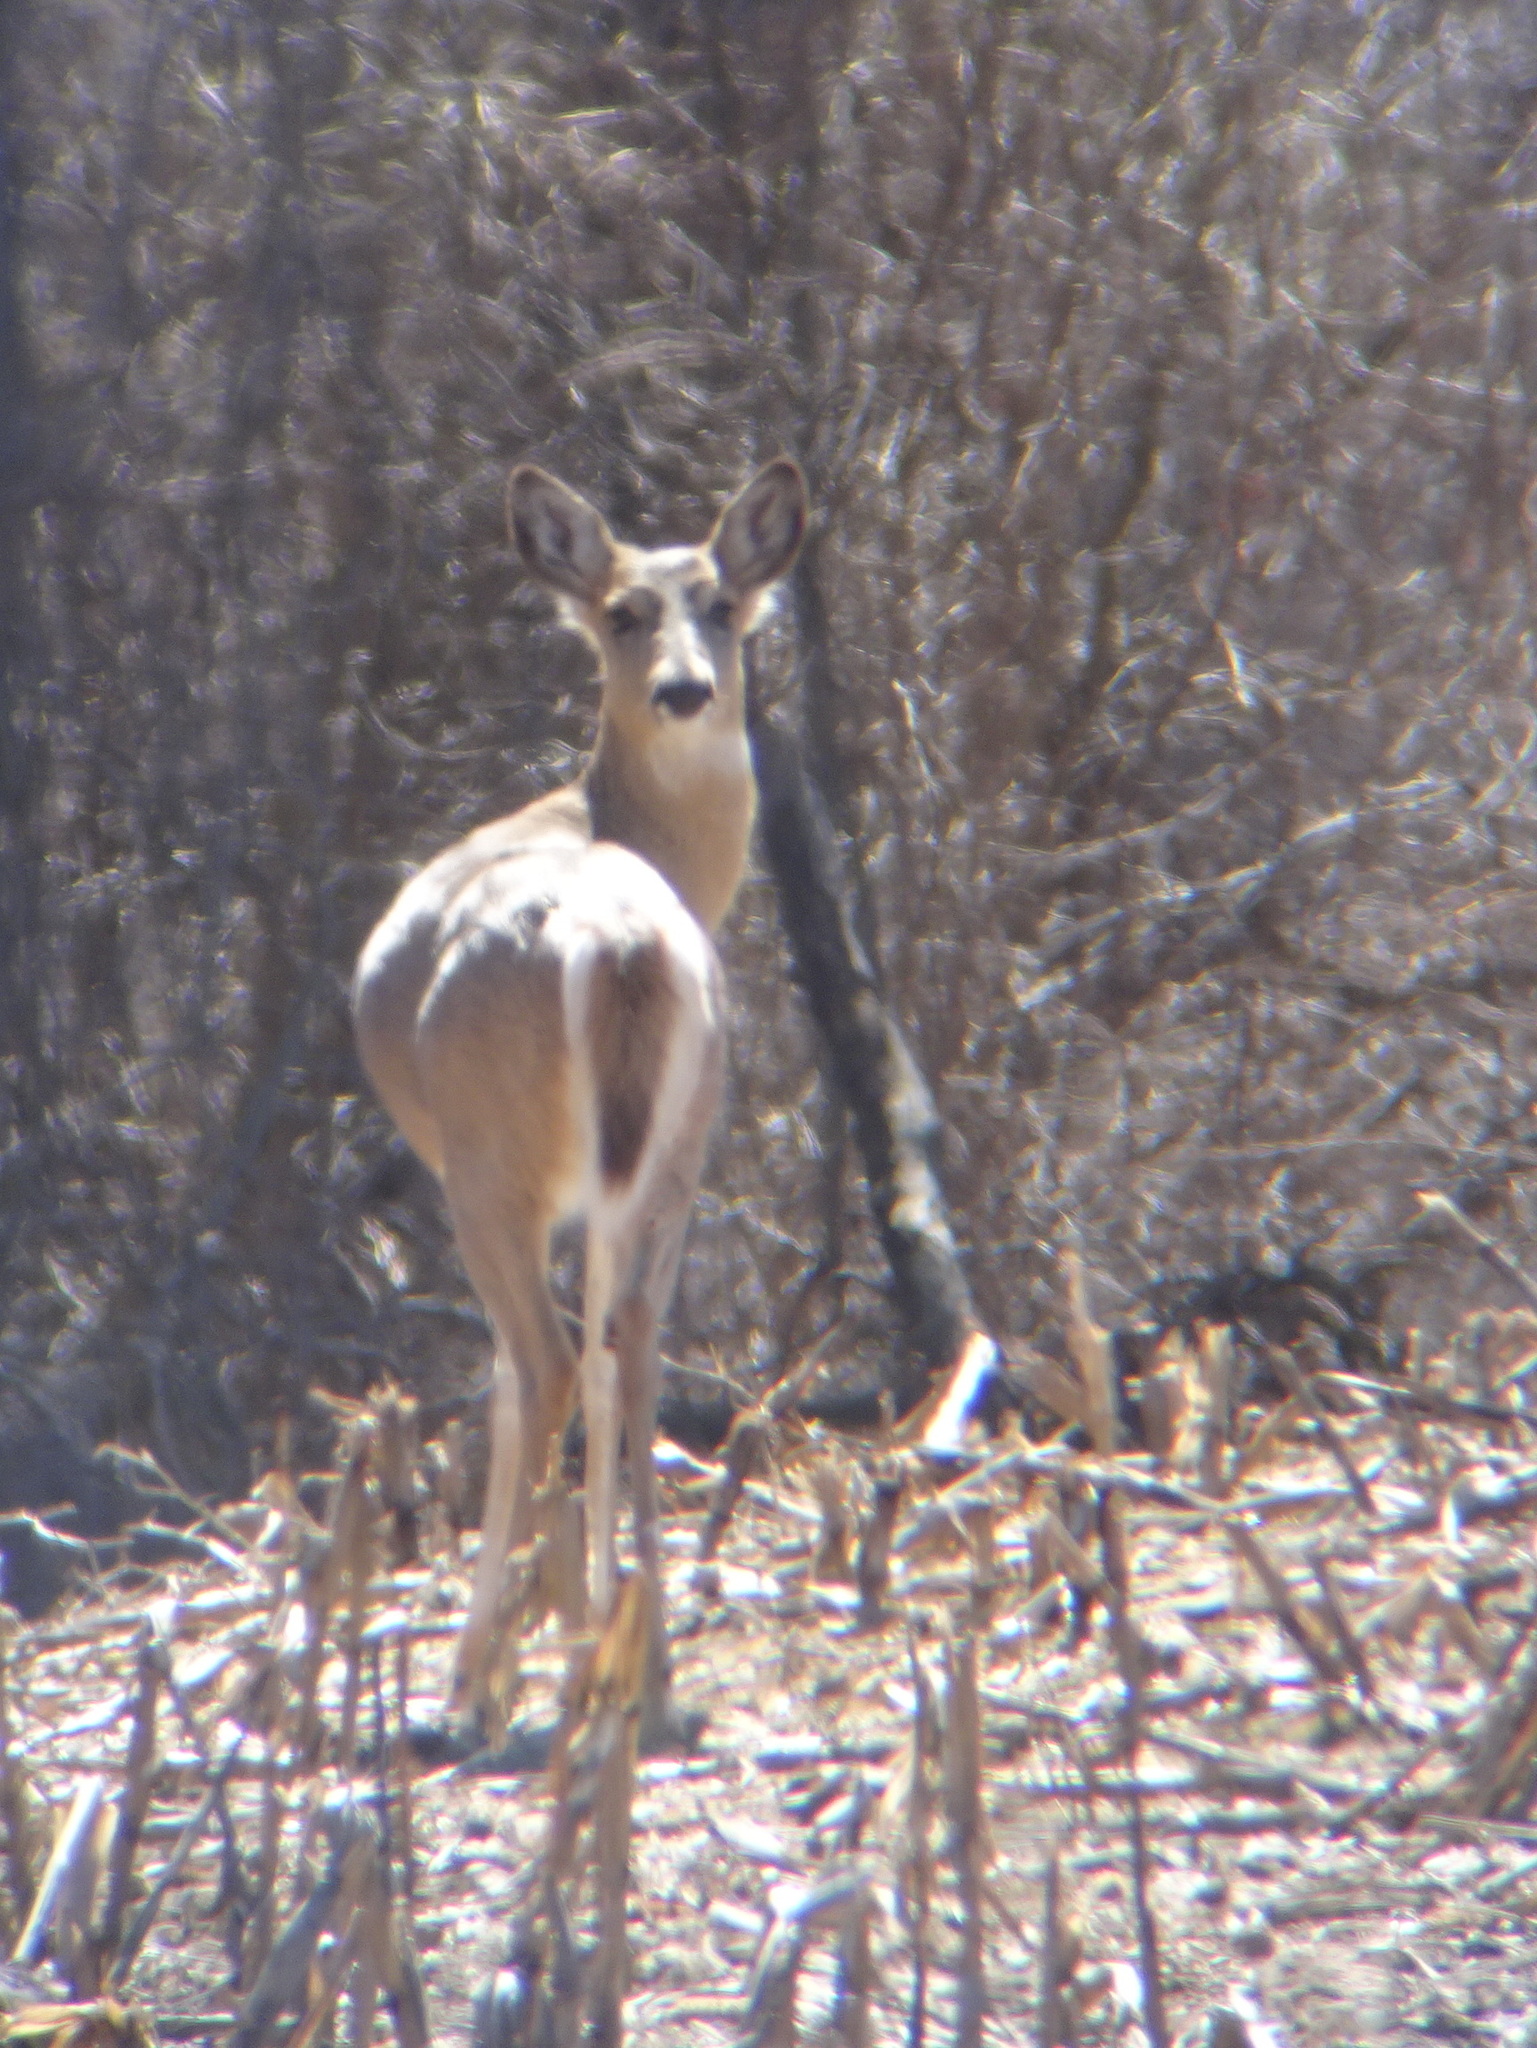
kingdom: Animalia
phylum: Chordata
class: Mammalia
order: Artiodactyla
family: Cervidae
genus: Odocoileus
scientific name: Odocoileus virginianus
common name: White-tailed deer
